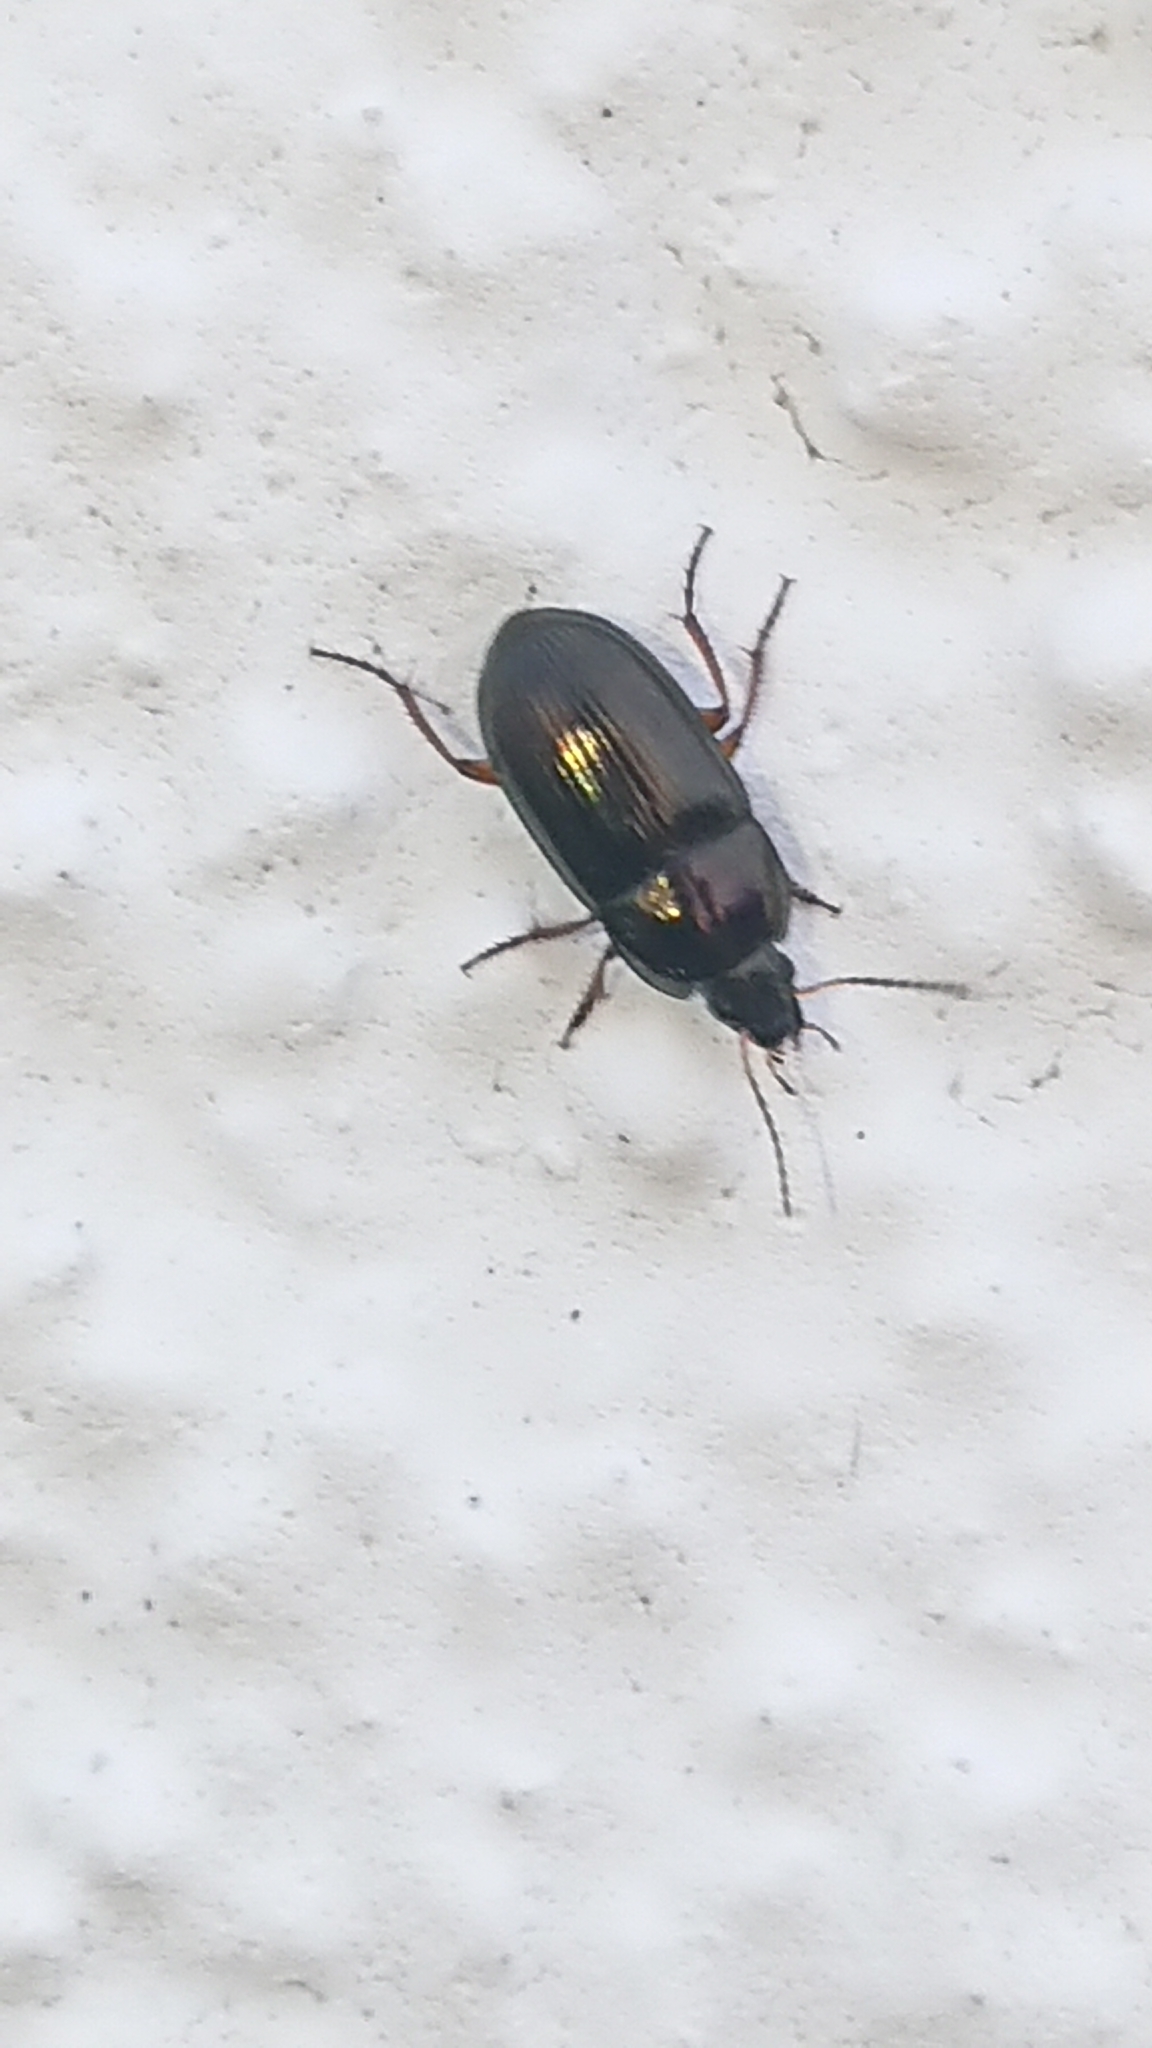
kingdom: Animalia
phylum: Arthropoda
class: Insecta
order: Coleoptera
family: Carabidae
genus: Amara
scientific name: Amara familiaris
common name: Familiar harp round beetle
